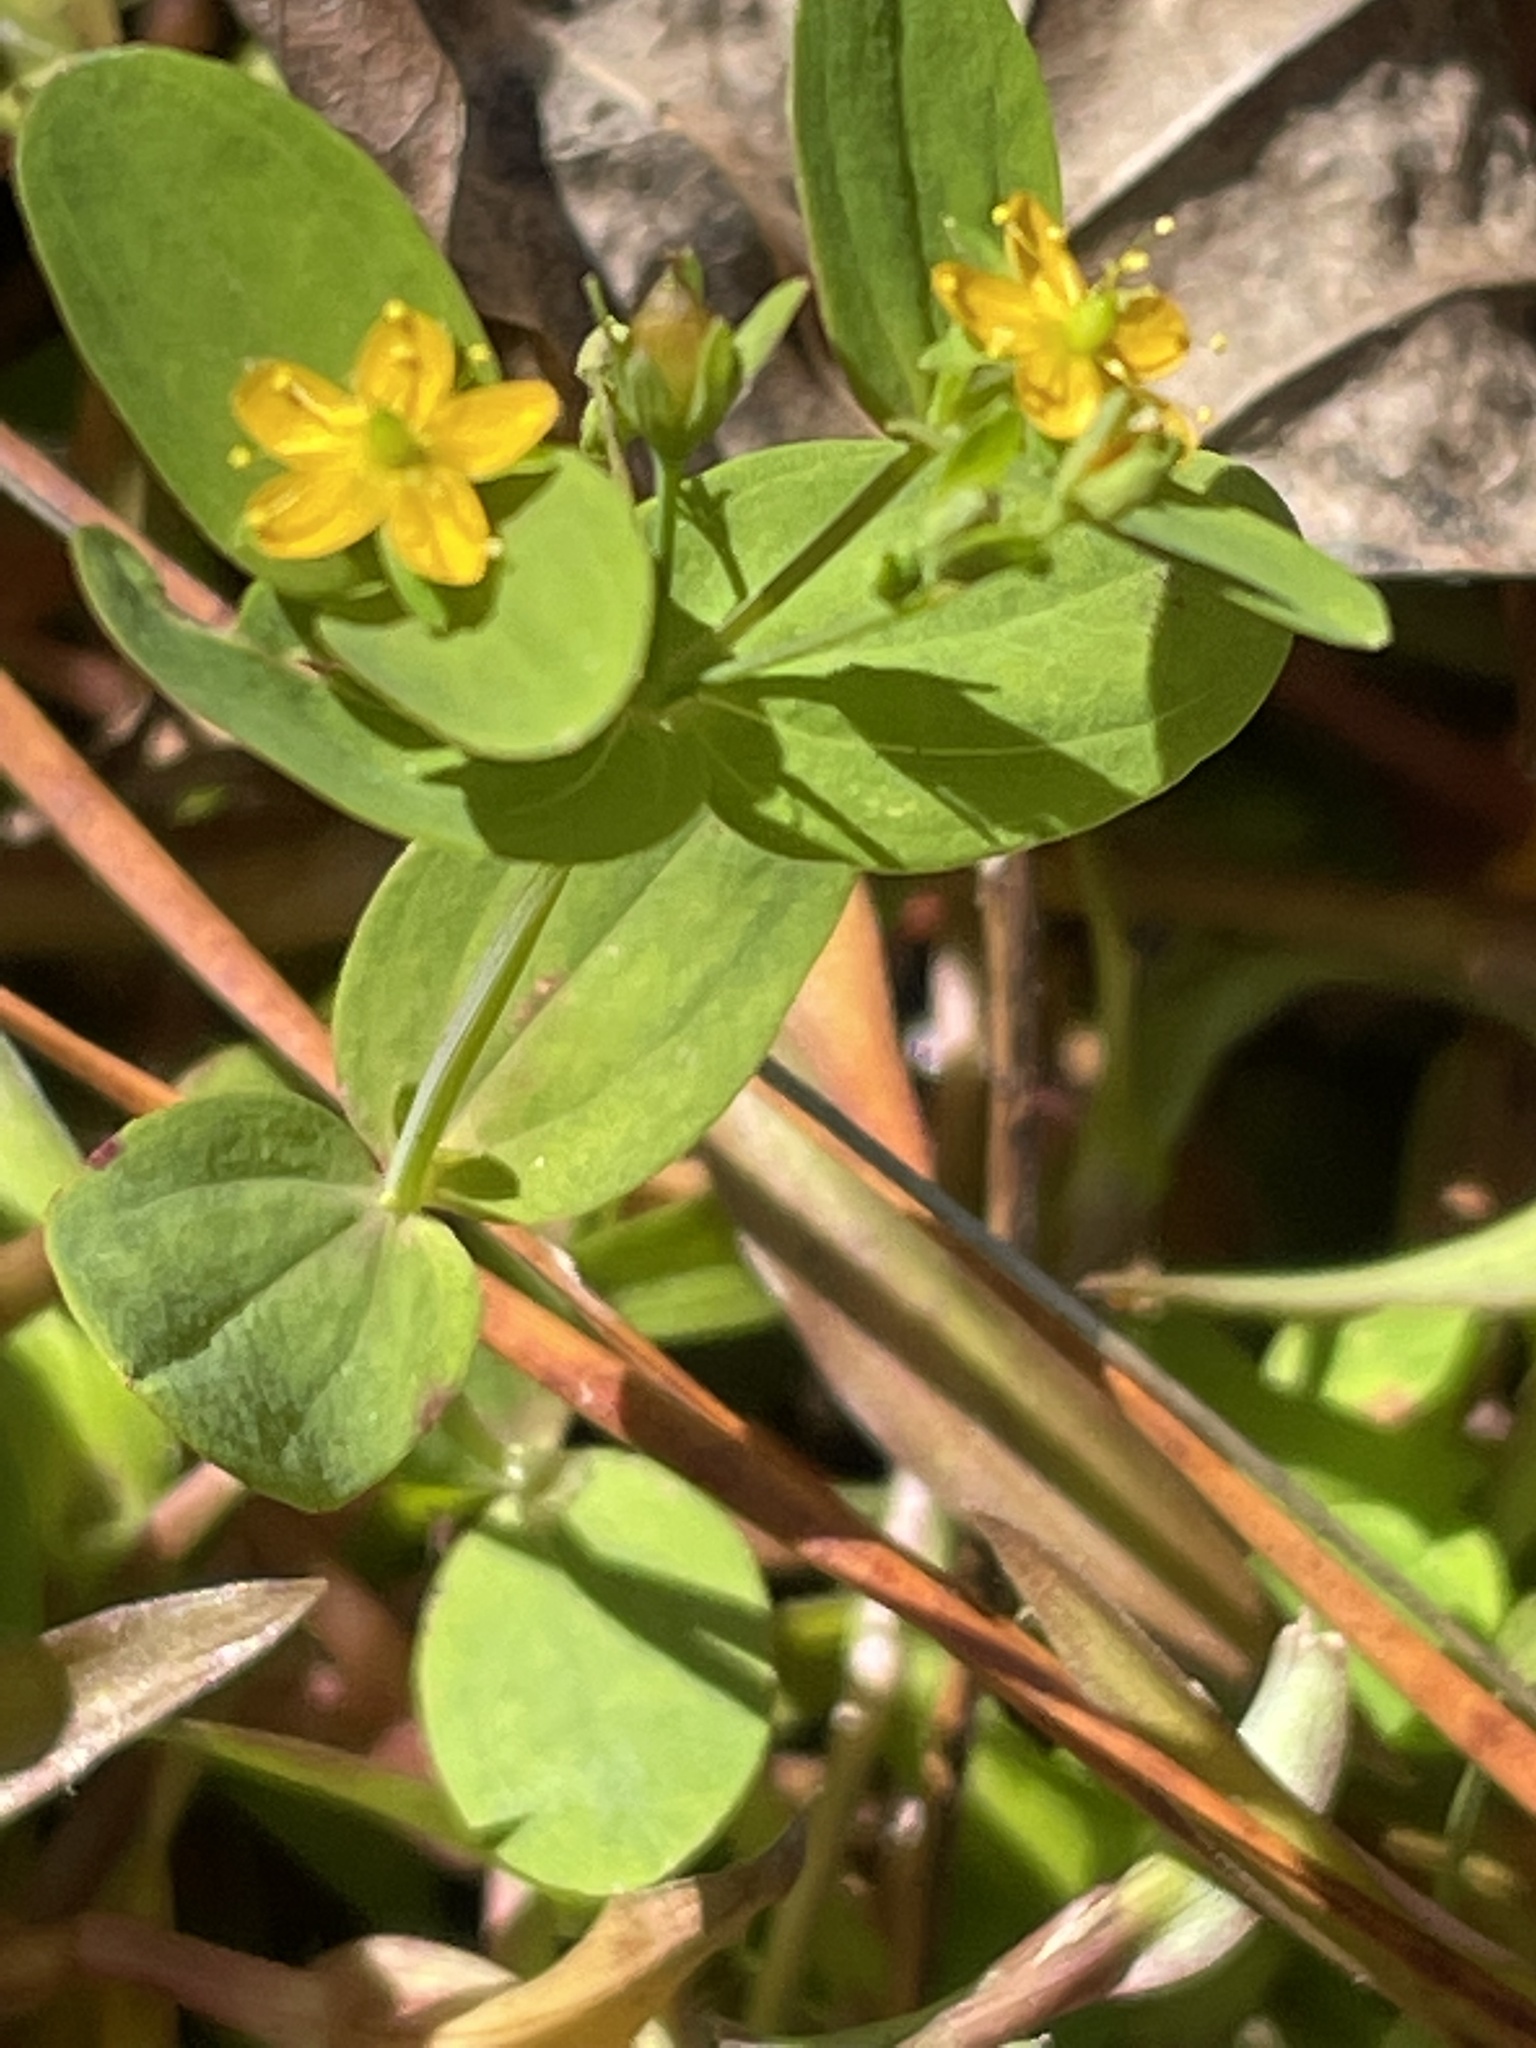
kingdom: Plantae
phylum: Tracheophyta
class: Magnoliopsida
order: Malpighiales
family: Hypericaceae
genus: Hypericum
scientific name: Hypericum mutilum
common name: Dwarf st. john's-wort
